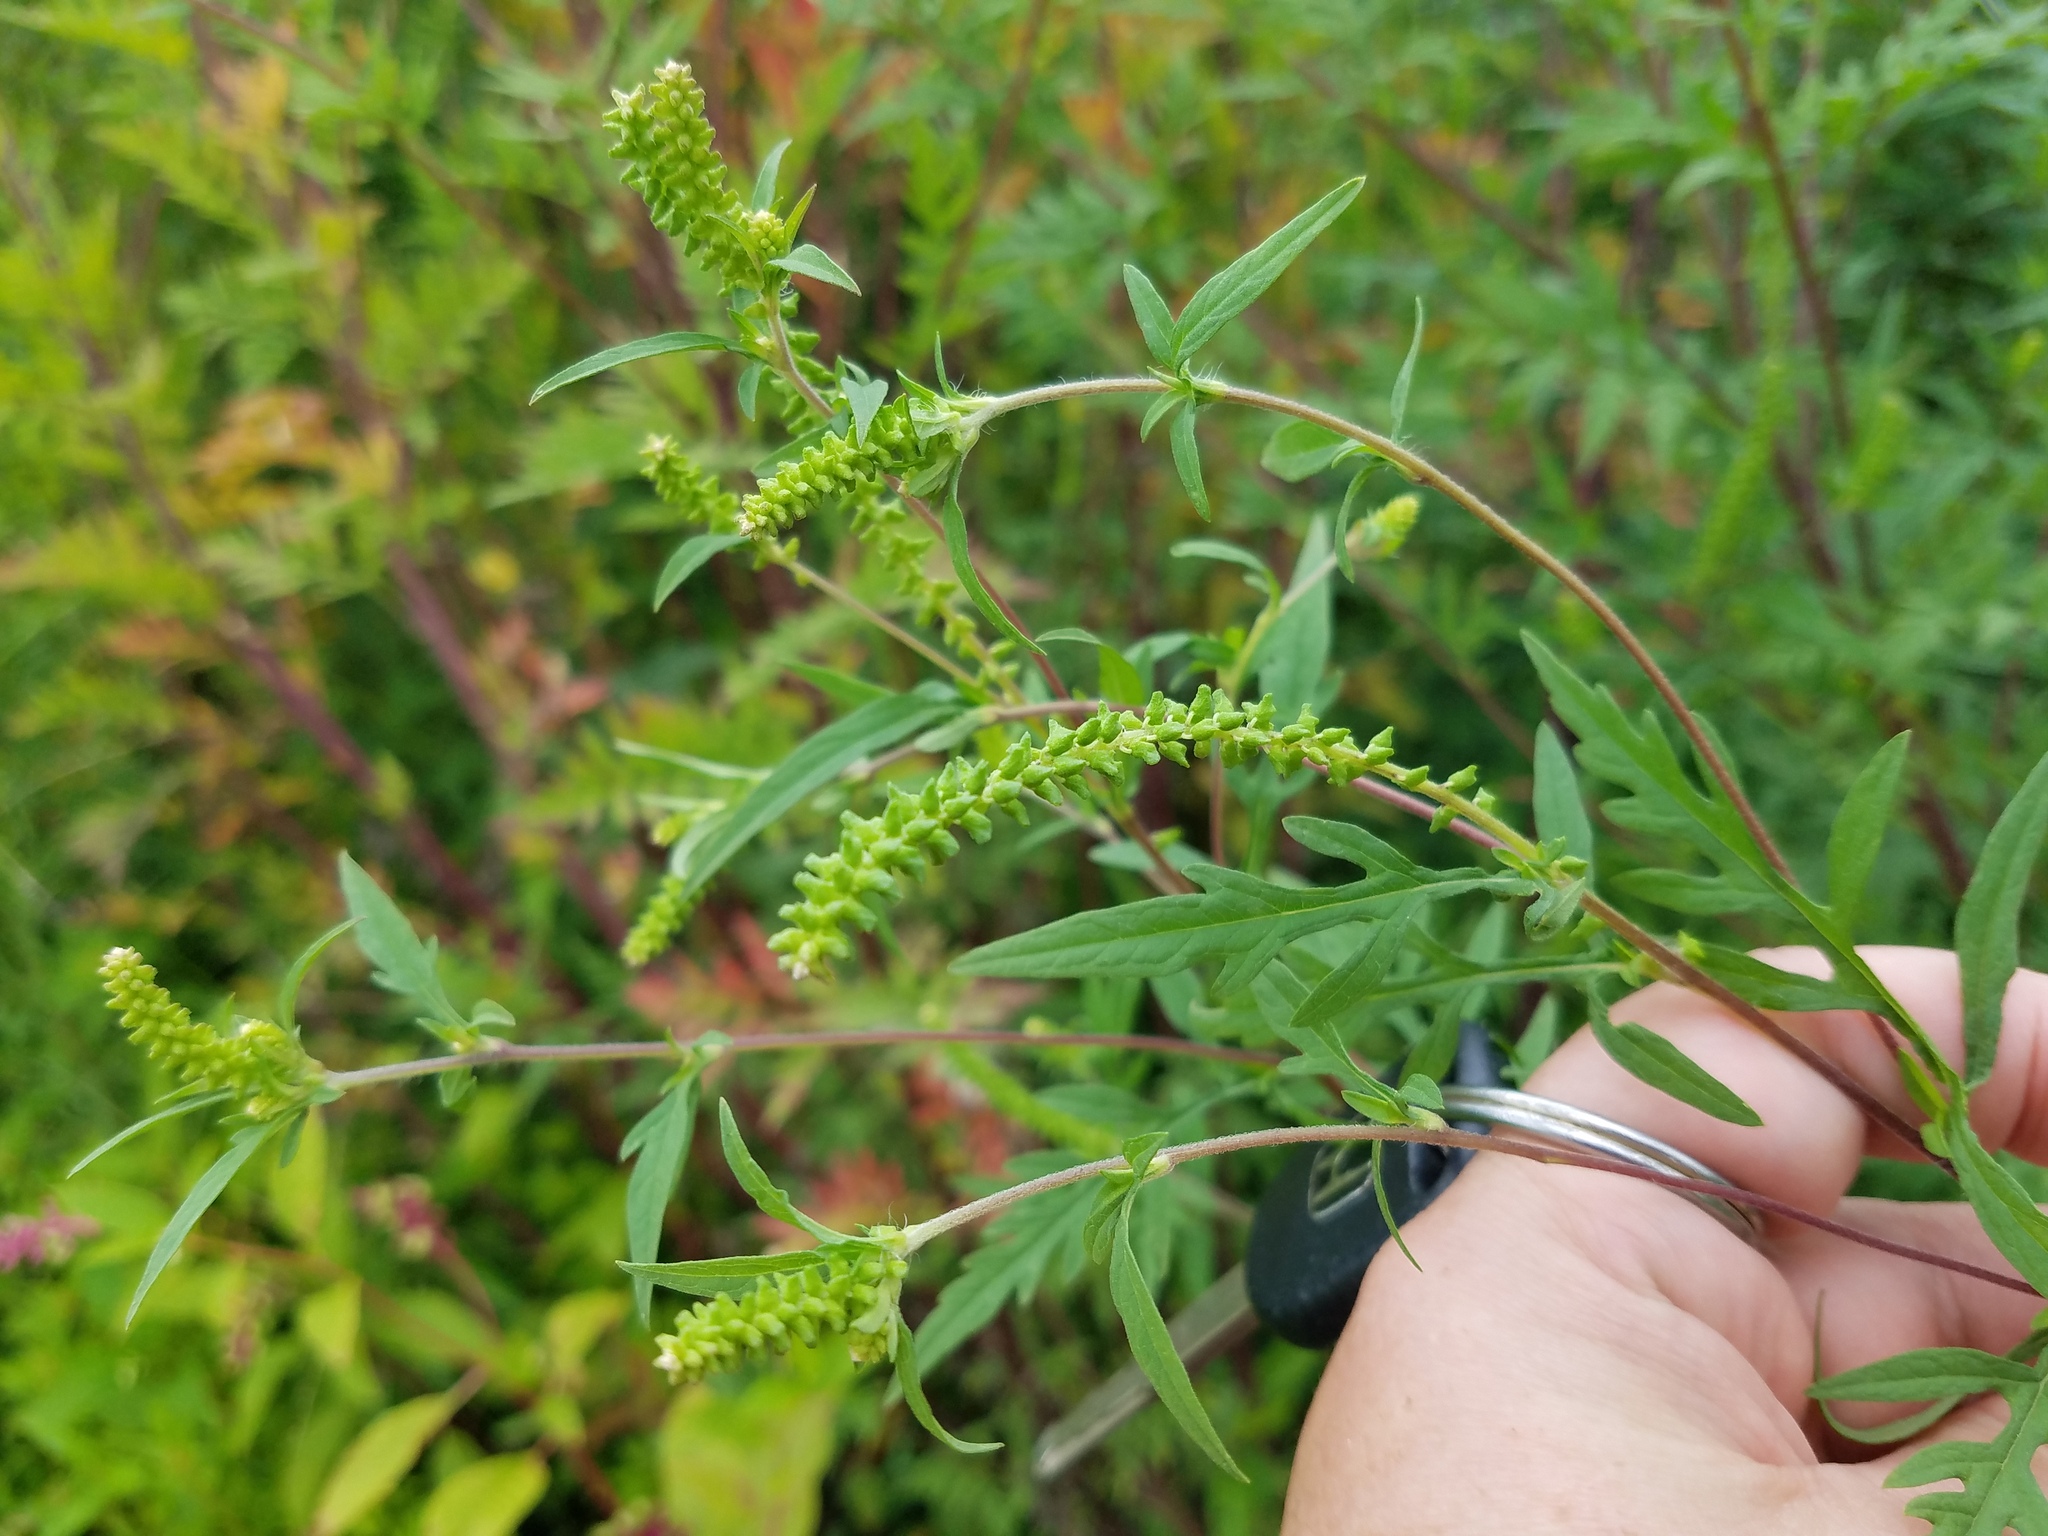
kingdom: Plantae
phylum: Tracheophyta
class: Magnoliopsida
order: Asterales
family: Asteraceae
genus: Ambrosia
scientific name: Ambrosia artemisiifolia
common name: Annual ragweed
